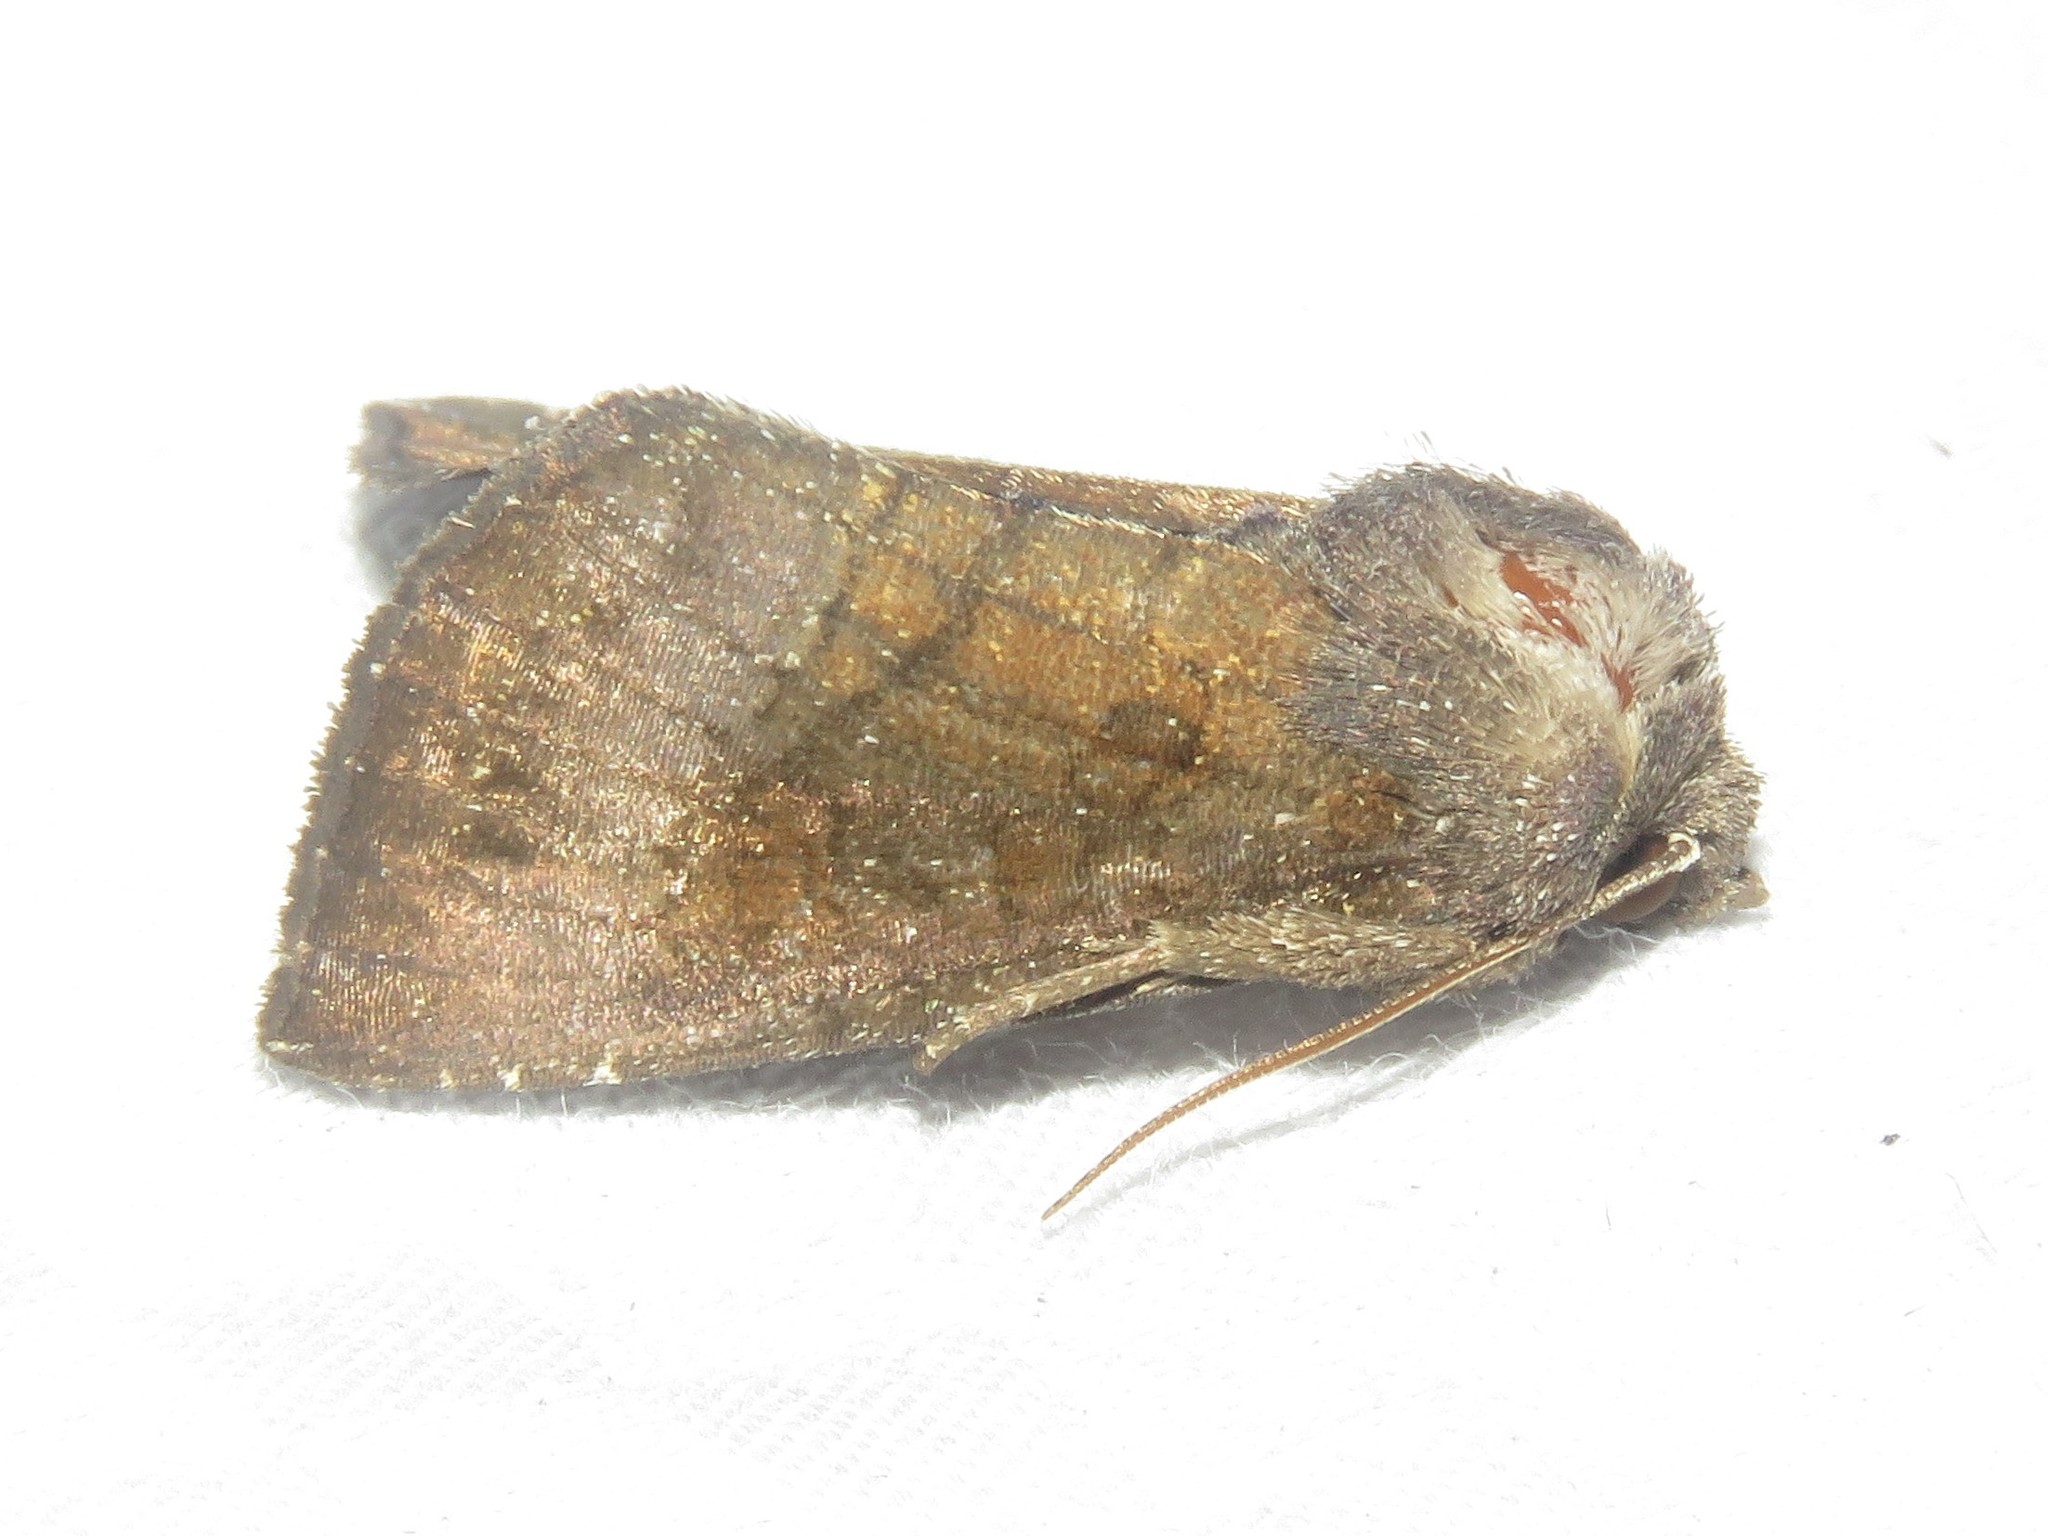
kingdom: Animalia
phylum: Arthropoda
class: Insecta
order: Lepidoptera
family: Noctuidae
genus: Papaipema
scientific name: Papaipema nelita
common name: Coneflower borer moth
